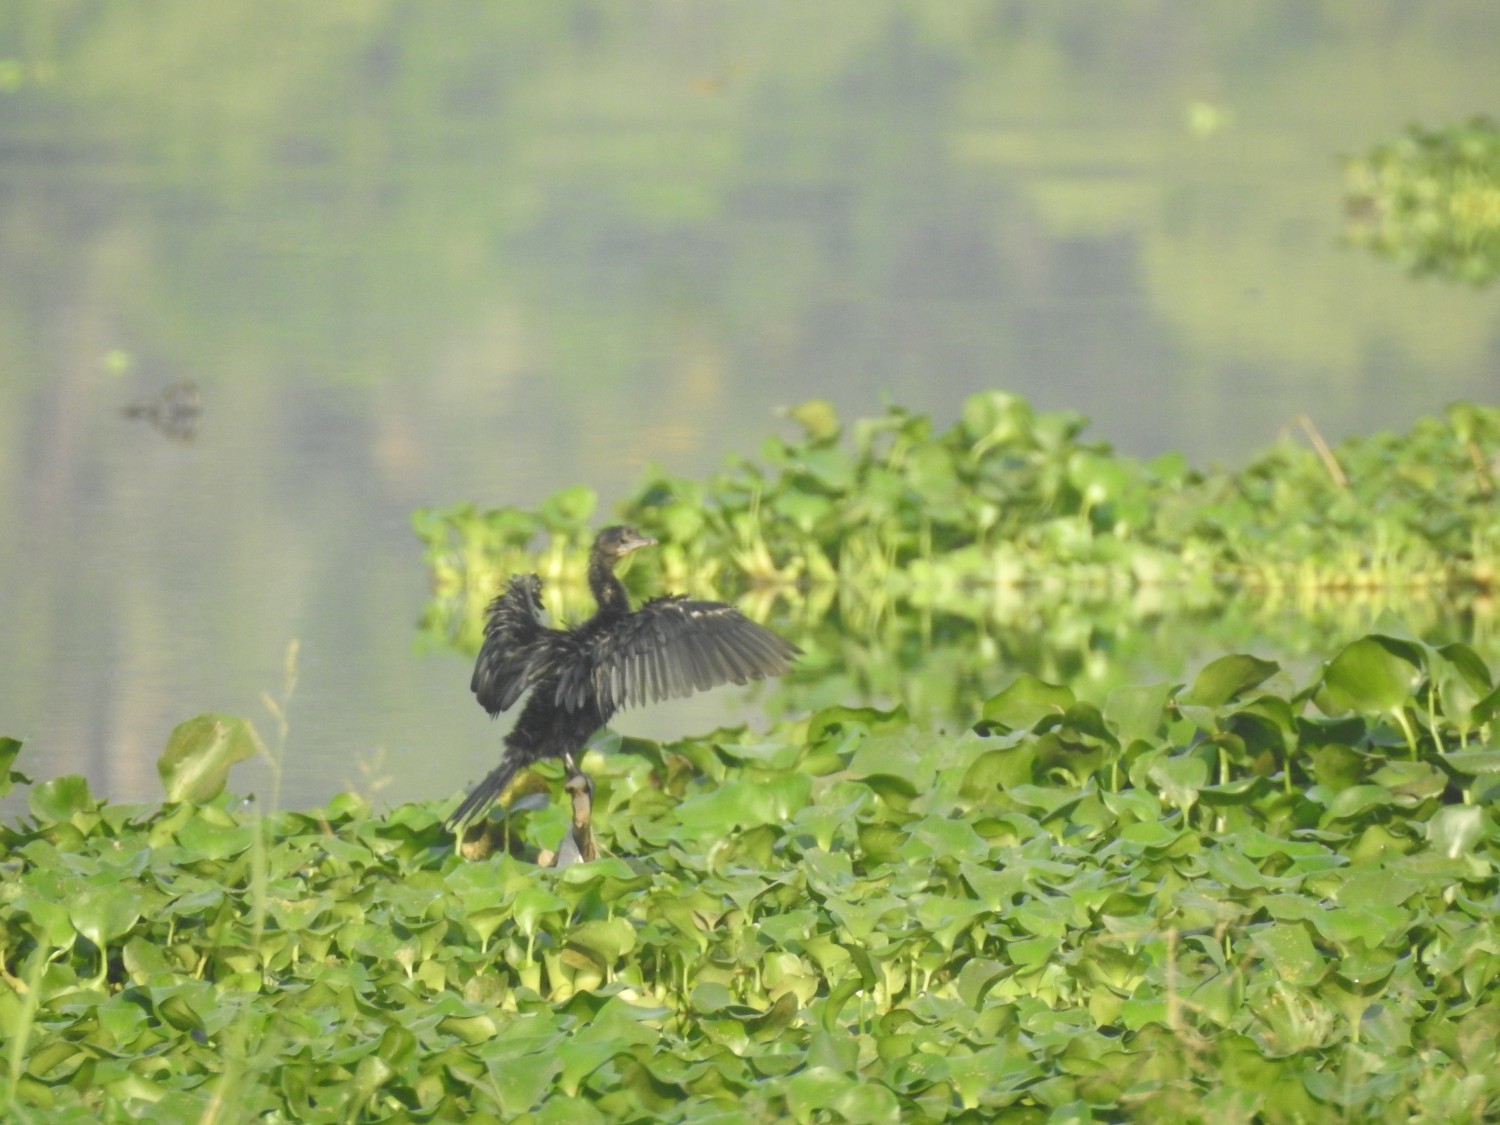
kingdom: Animalia
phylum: Chordata
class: Aves
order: Suliformes
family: Phalacrocoracidae
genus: Microcarbo
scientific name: Microcarbo niger
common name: Little cormorant
